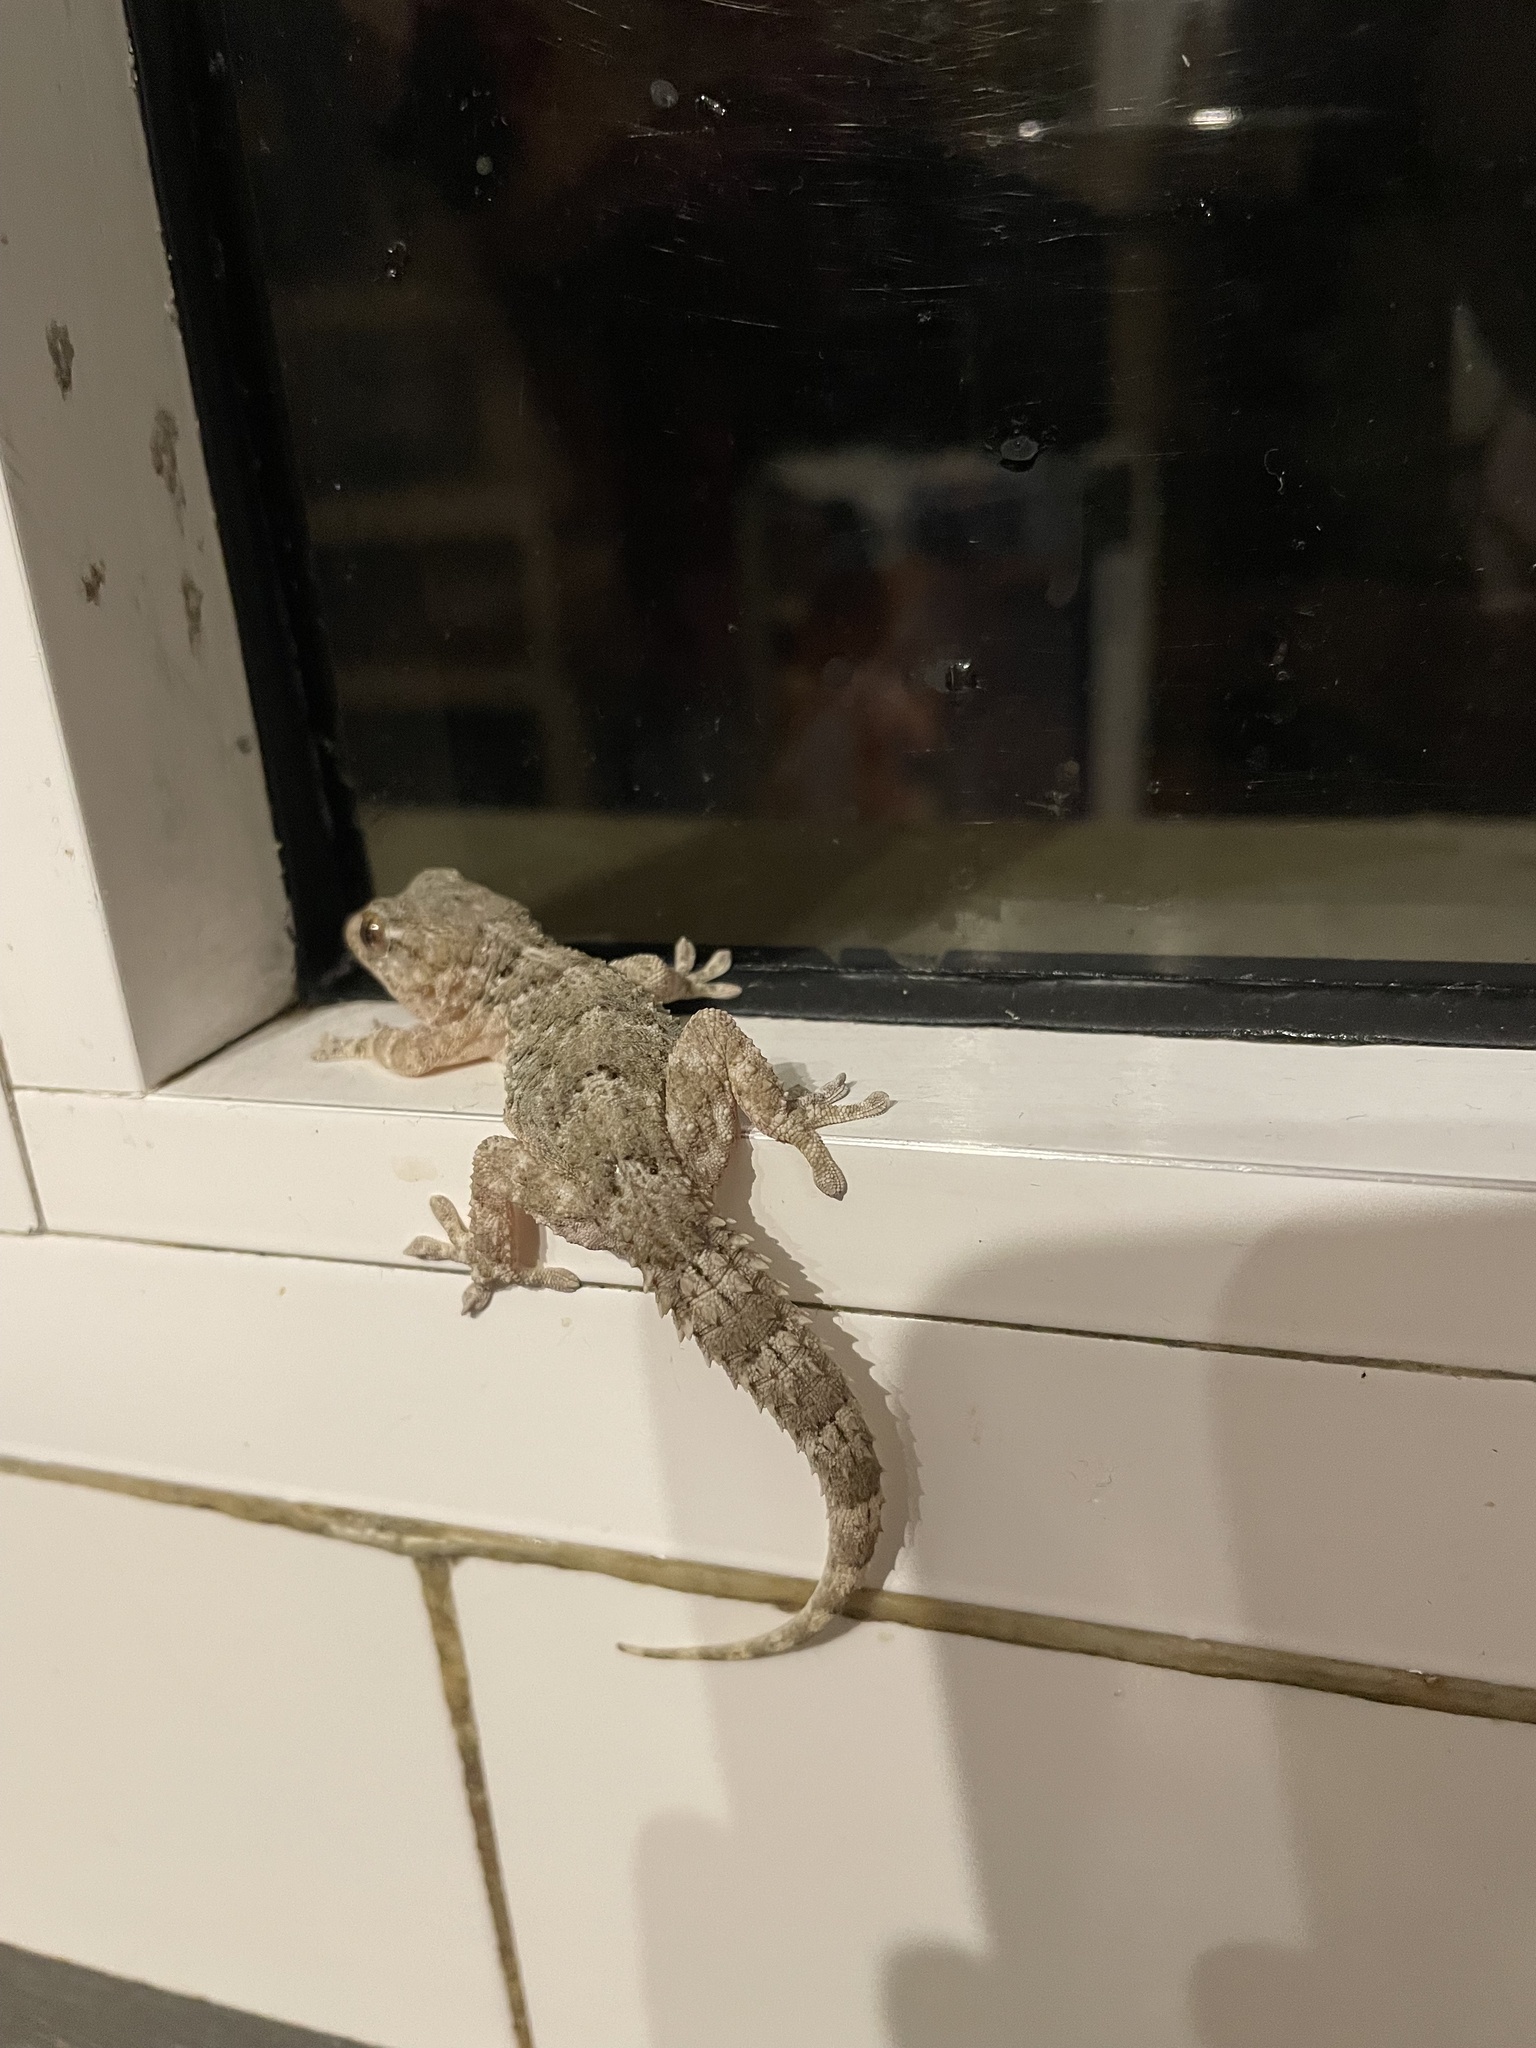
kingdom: Animalia
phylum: Chordata
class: Squamata
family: Phyllodactylidae
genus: Tarentola
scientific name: Tarentola angustimentalis
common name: East canary gecko
